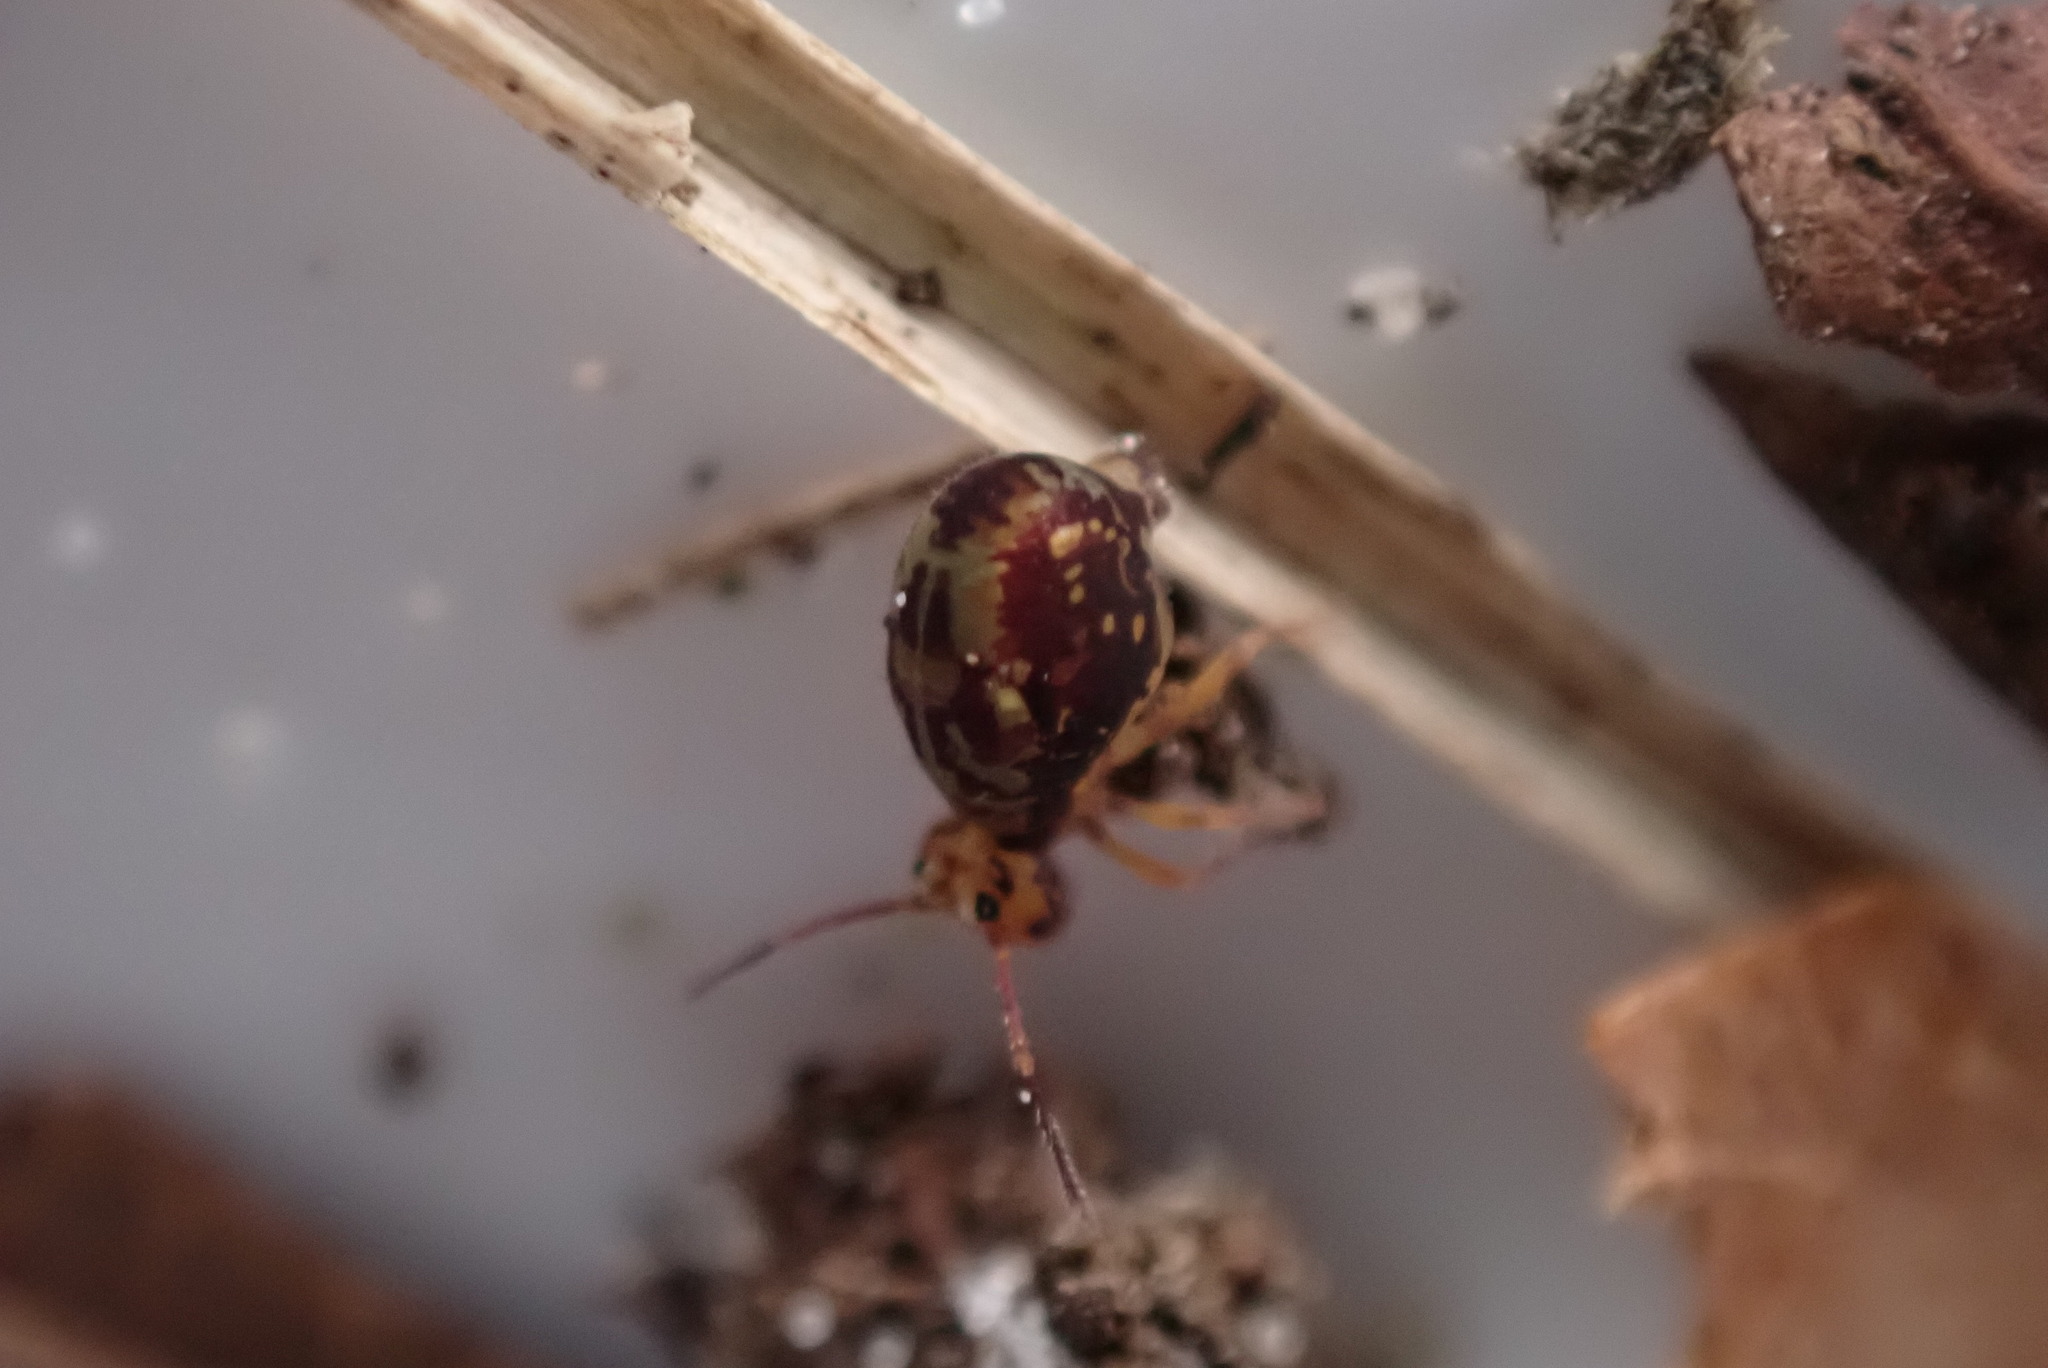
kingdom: Animalia
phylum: Arthropoda
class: Collembola
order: Symphypleona
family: Dicyrtomidae
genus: Dicyrtomina
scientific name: Dicyrtomina saundersi
